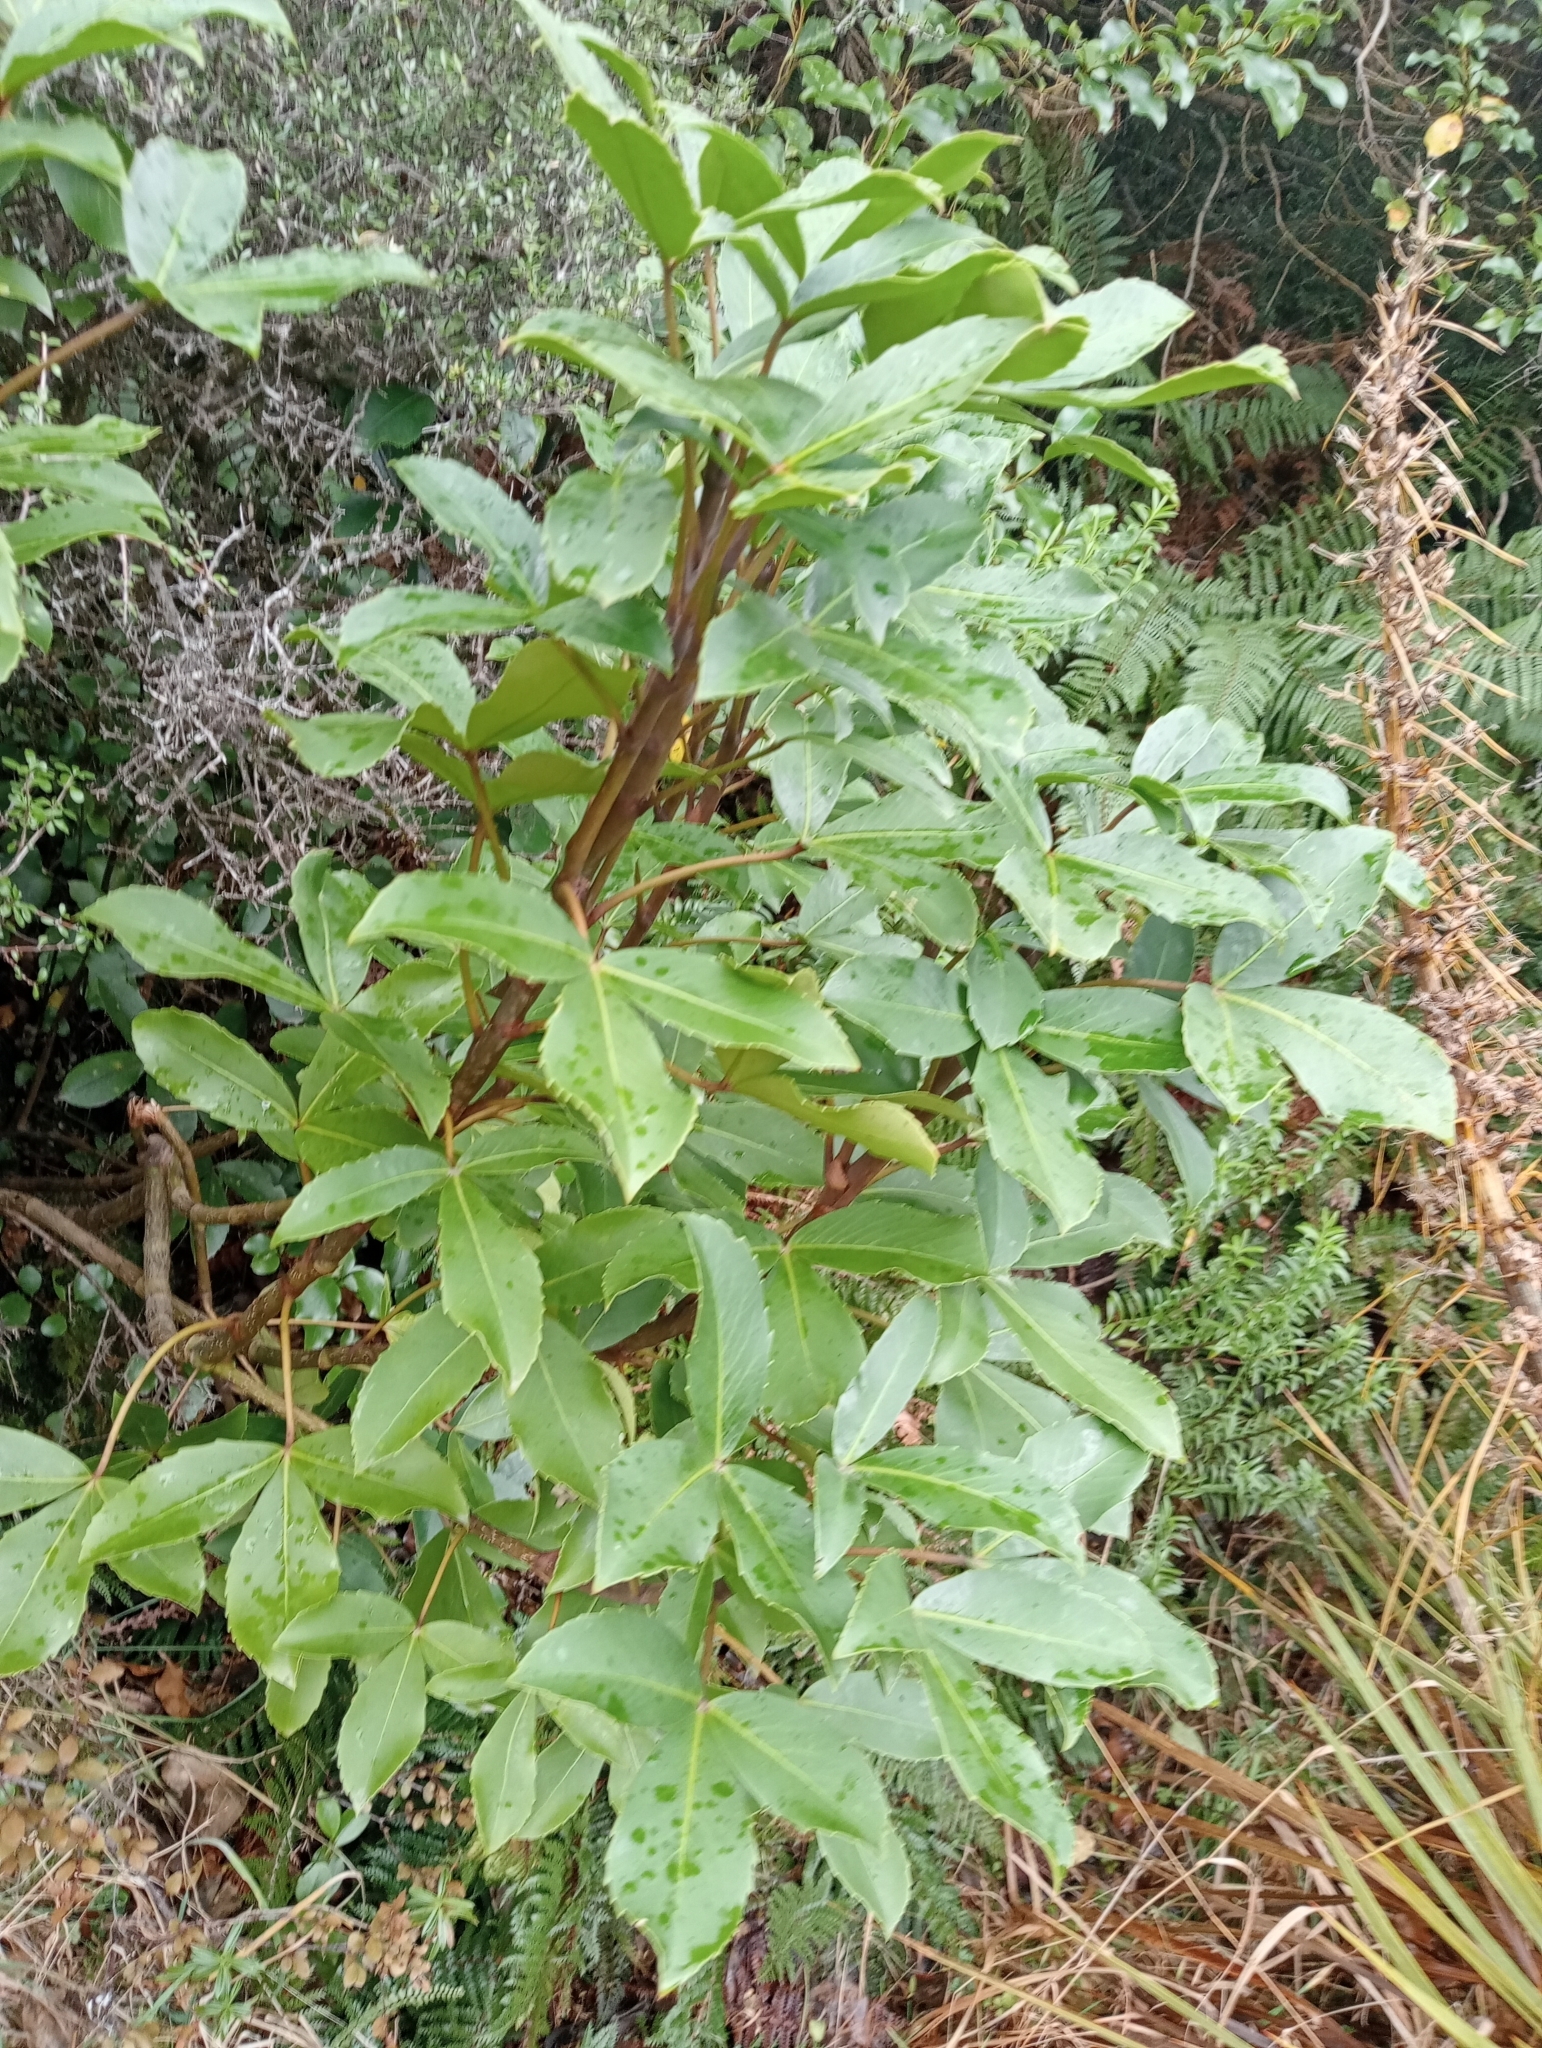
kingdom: Plantae
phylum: Tracheophyta
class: Magnoliopsida
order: Apiales
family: Araliaceae
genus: Neopanax
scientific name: Neopanax colensoi
